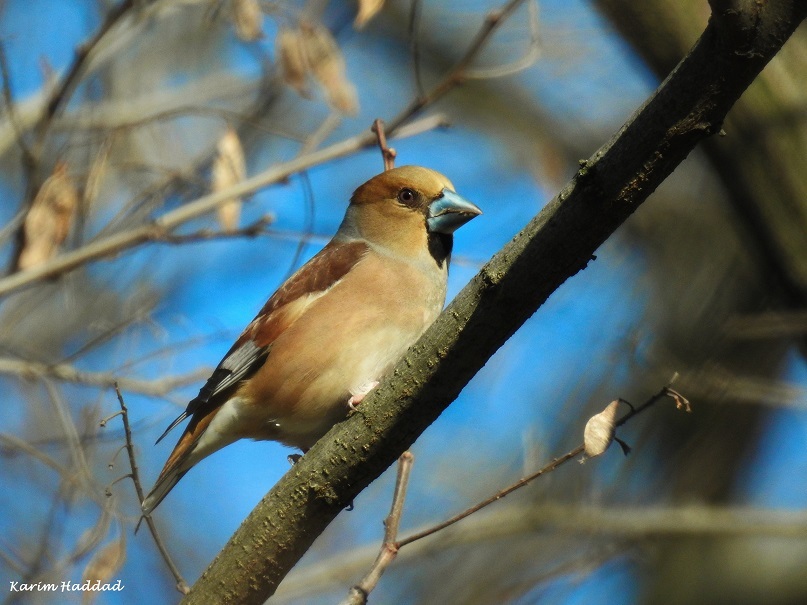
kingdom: Animalia
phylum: Chordata
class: Aves
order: Passeriformes
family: Fringillidae
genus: Coccothraustes
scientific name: Coccothraustes coccothraustes
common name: Hawfinch
